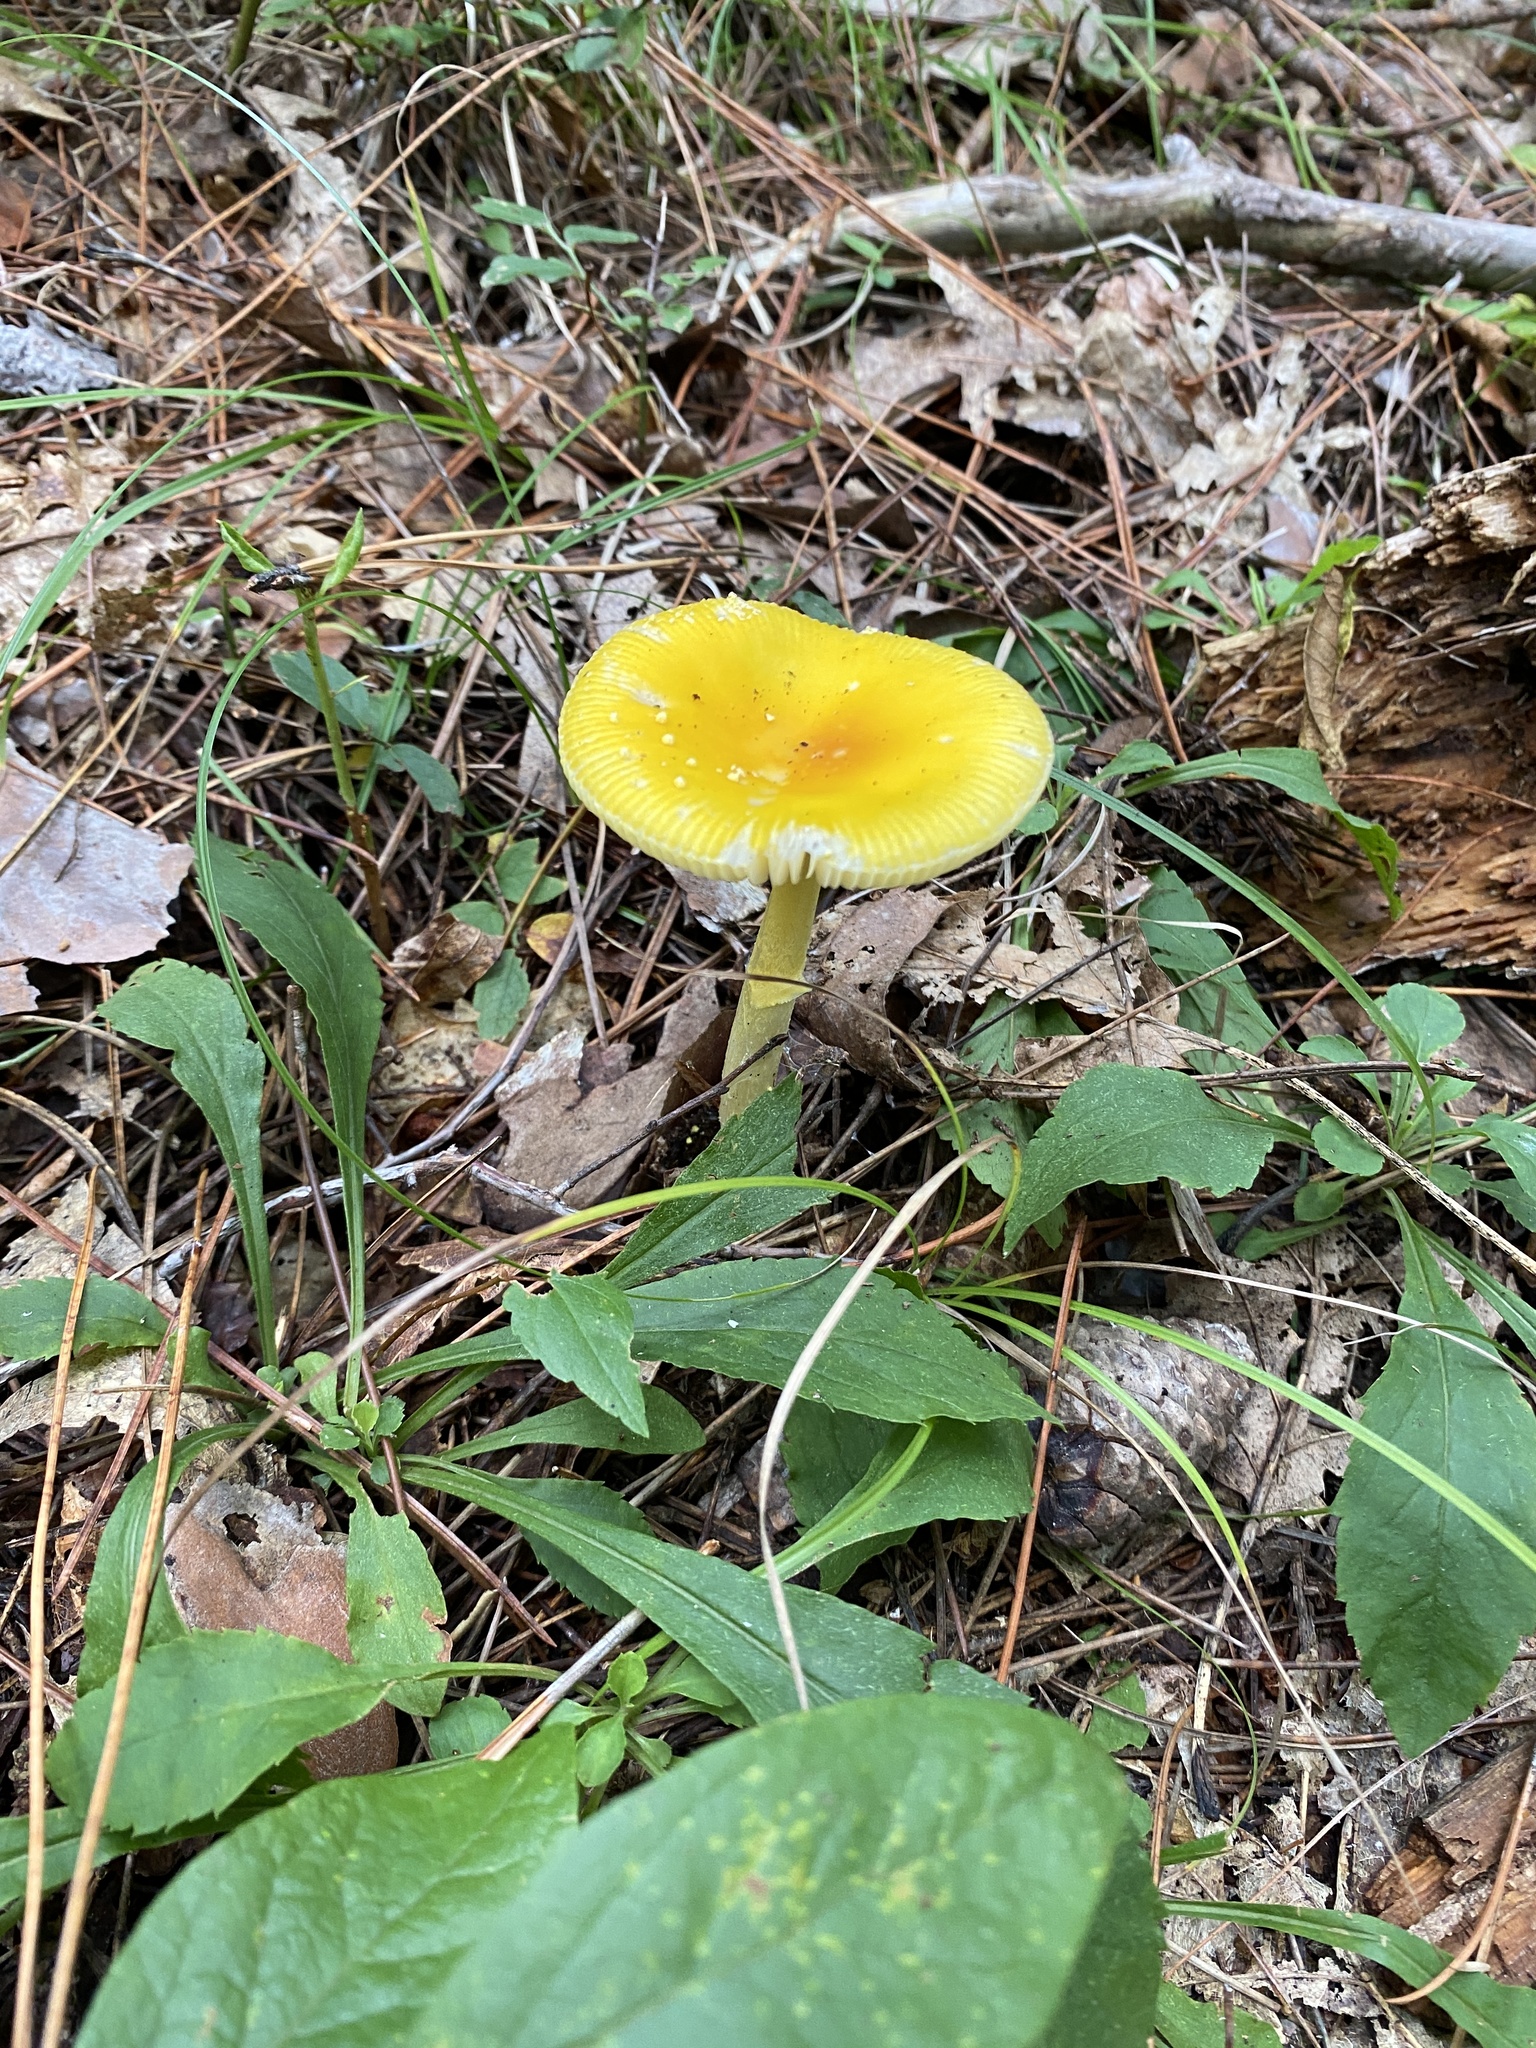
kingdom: Fungi
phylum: Basidiomycota
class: Agaricomycetes
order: Agaricales
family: Amanitaceae
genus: Amanita
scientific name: Amanita frostiana
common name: Frost's amanita
